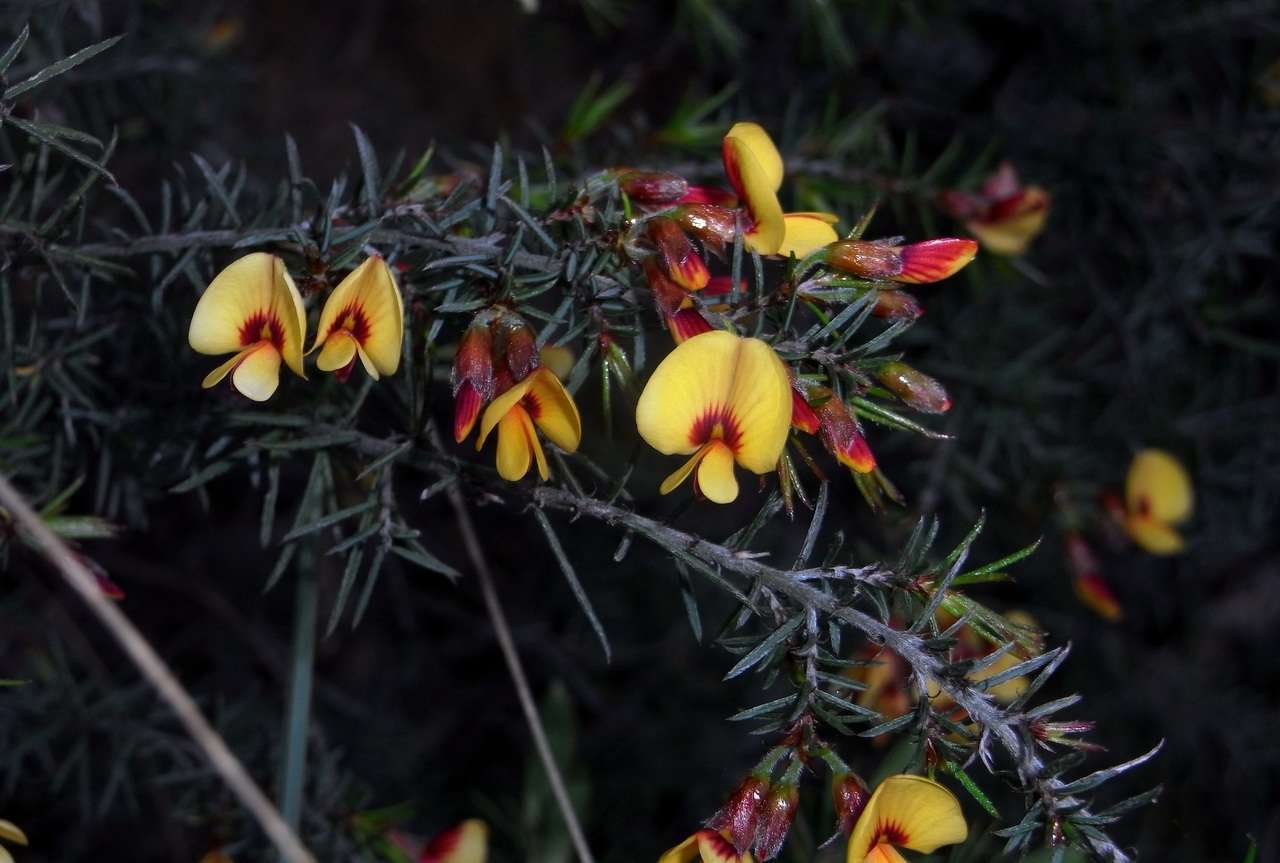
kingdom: Plantae
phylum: Tracheophyta
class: Magnoliopsida
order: Fabales
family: Fabaceae
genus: Pultenaea
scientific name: Pultenaea williamsoniana
